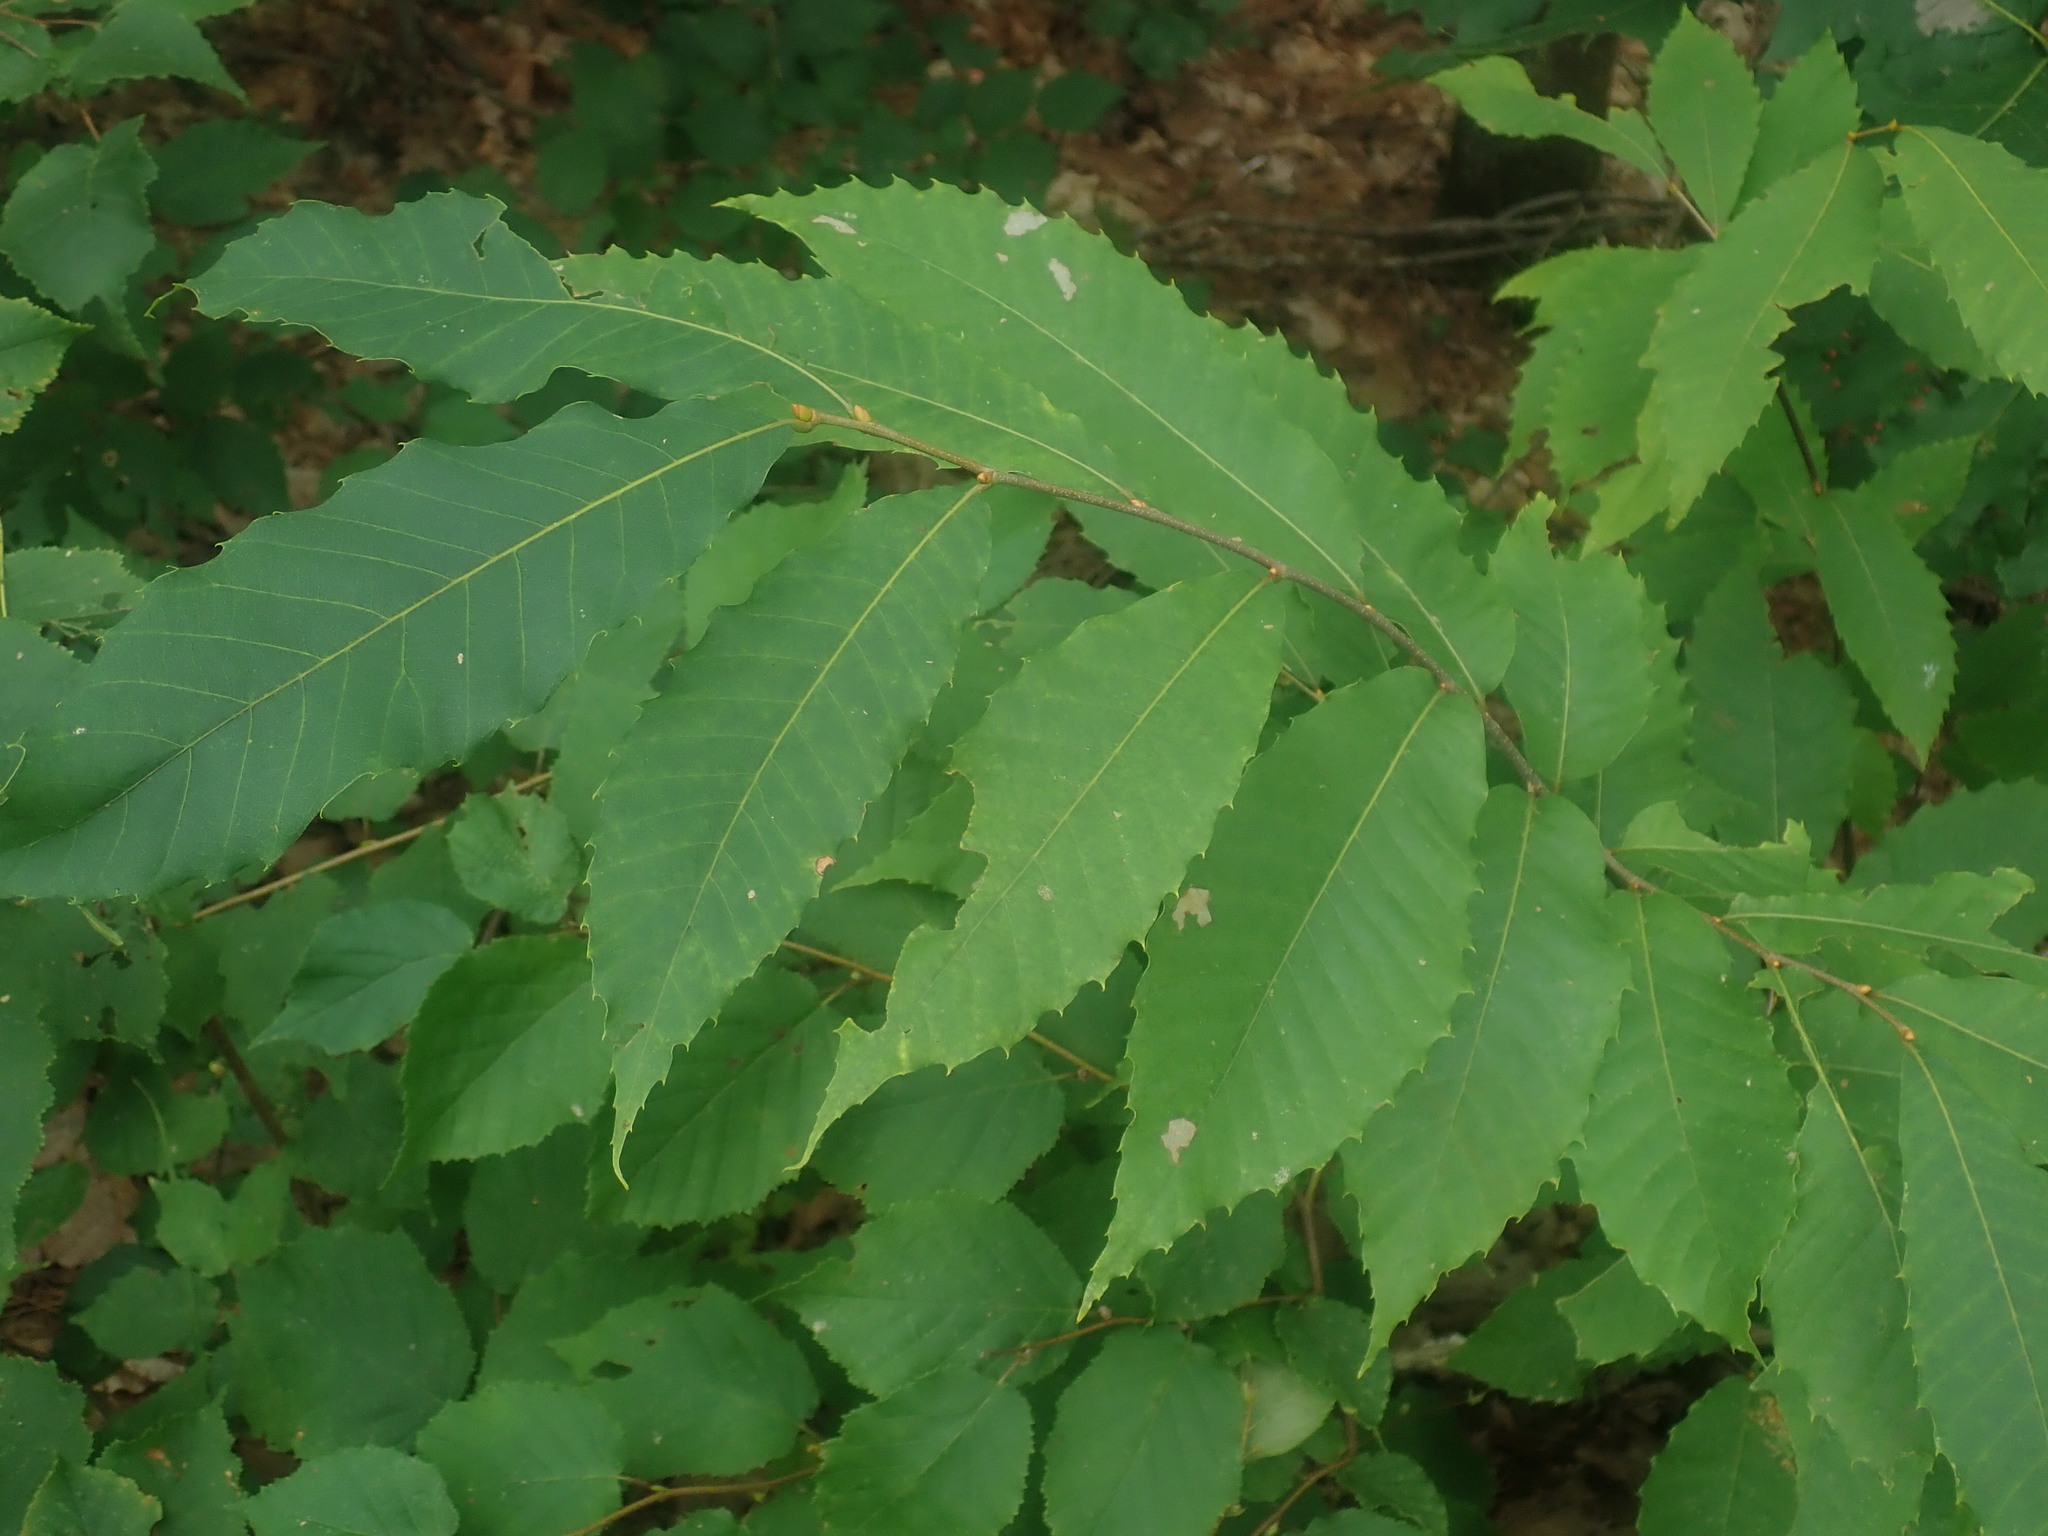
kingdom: Plantae
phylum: Tracheophyta
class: Magnoliopsida
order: Fagales
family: Fagaceae
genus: Castanea
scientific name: Castanea dentata
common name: American chestnut
